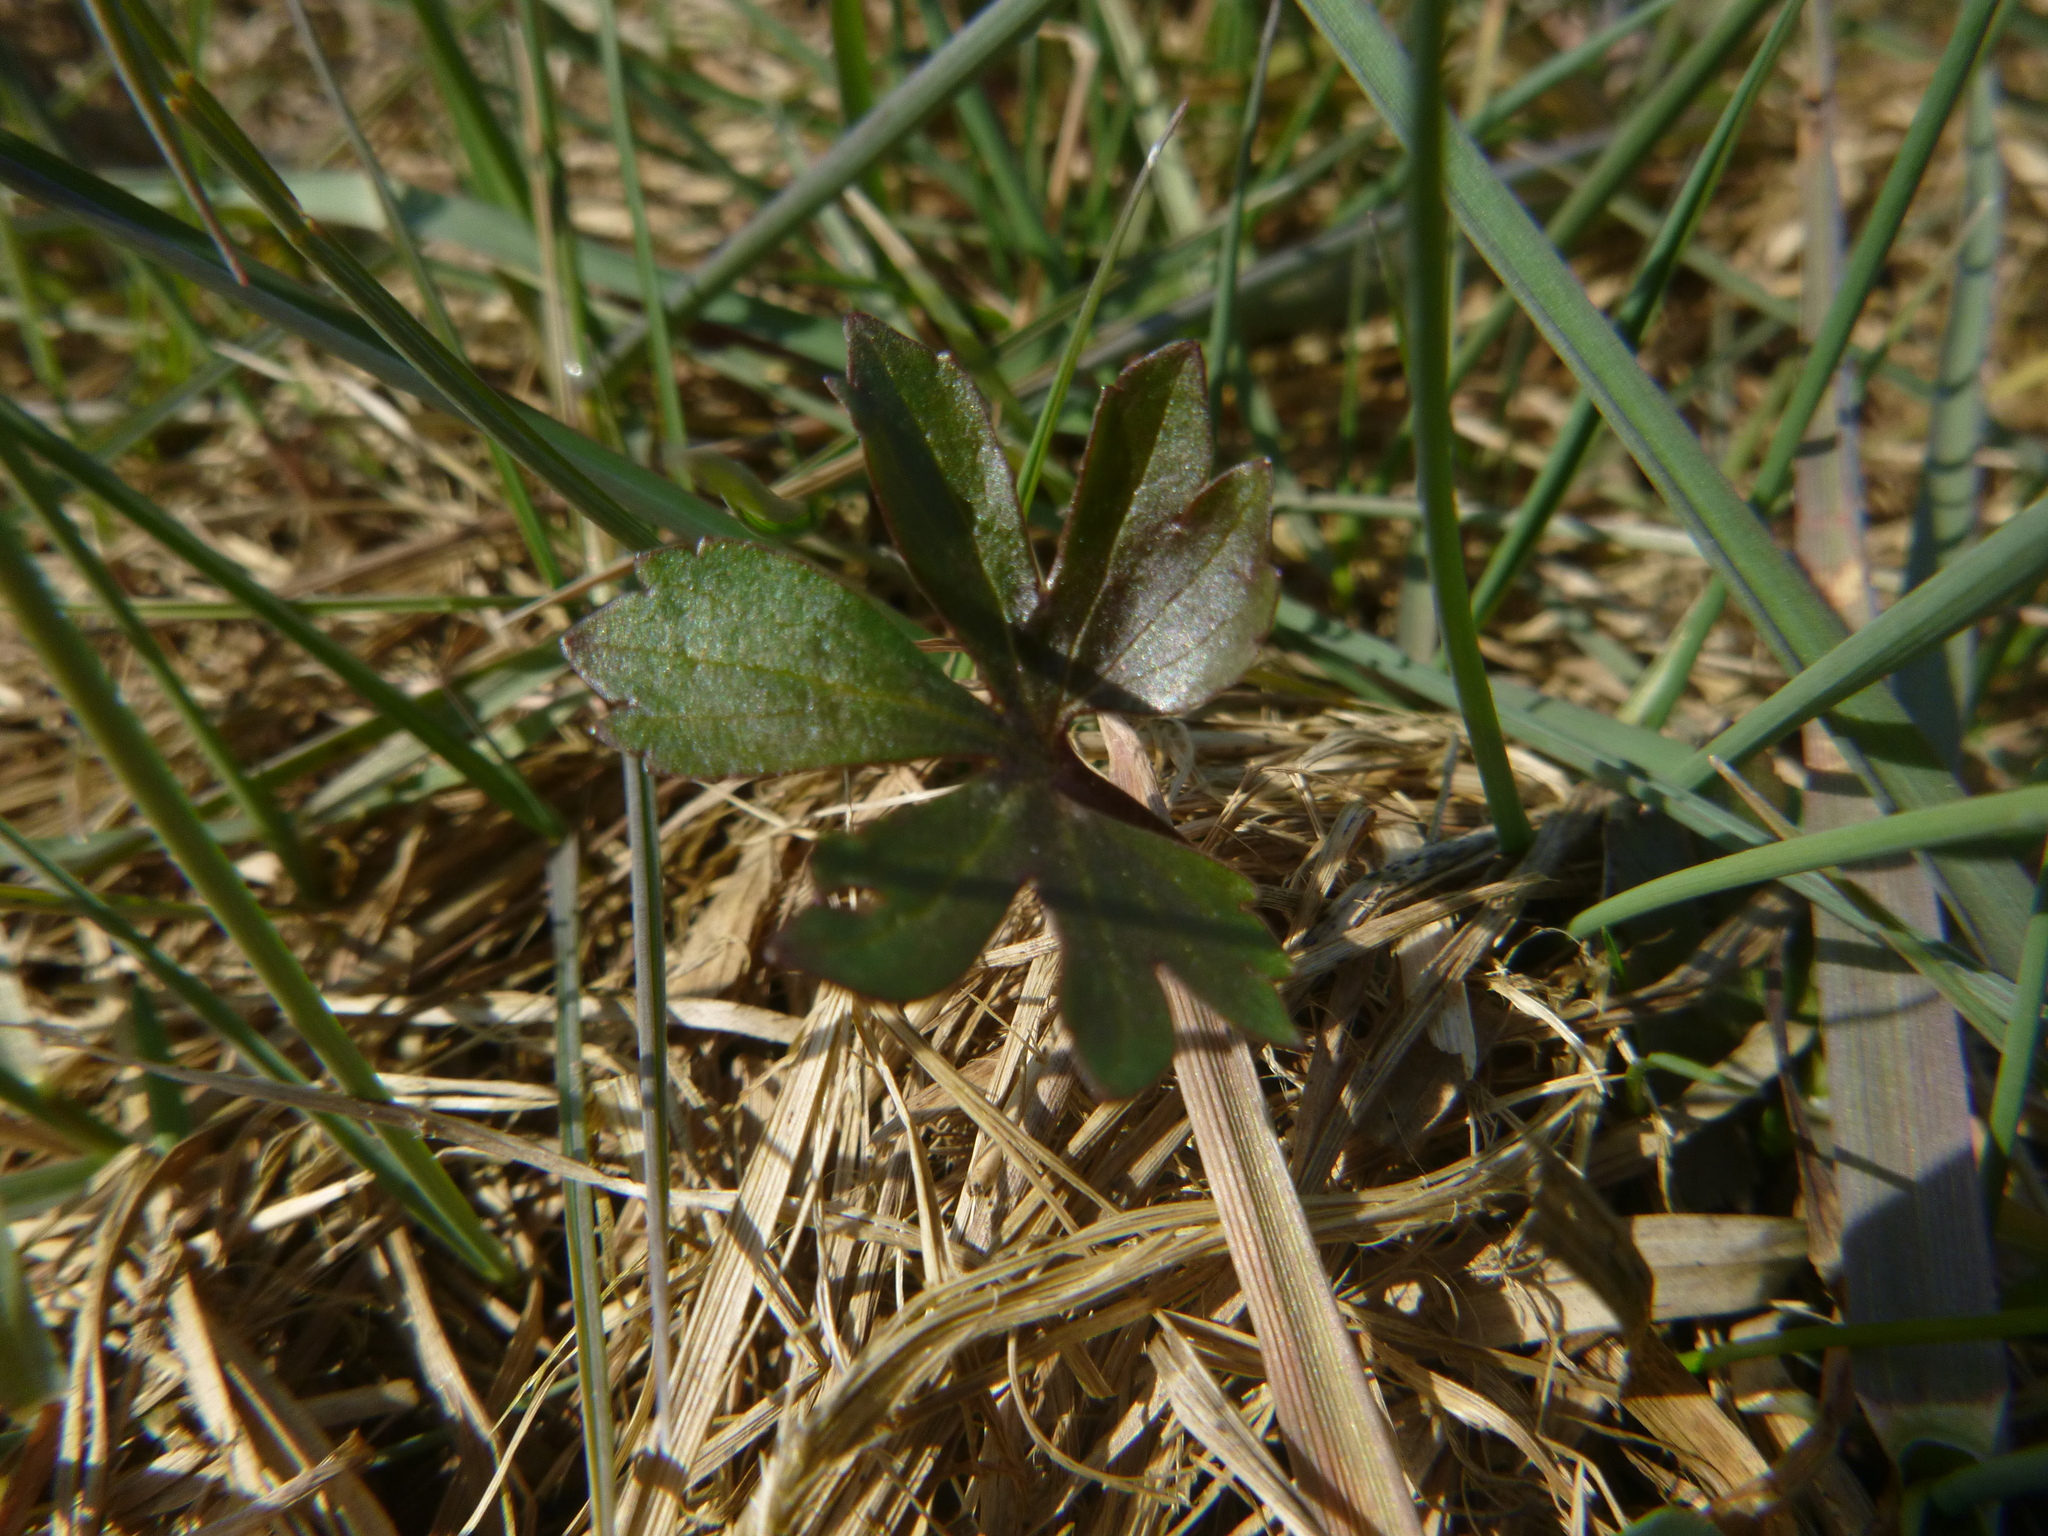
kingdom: Plantae
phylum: Tracheophyta
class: Magnoliopsida
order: Ranunculales
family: Ranunculaceae
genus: Ranunculus
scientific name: Ranunculus auricomus
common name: Goldilocks buttercup
